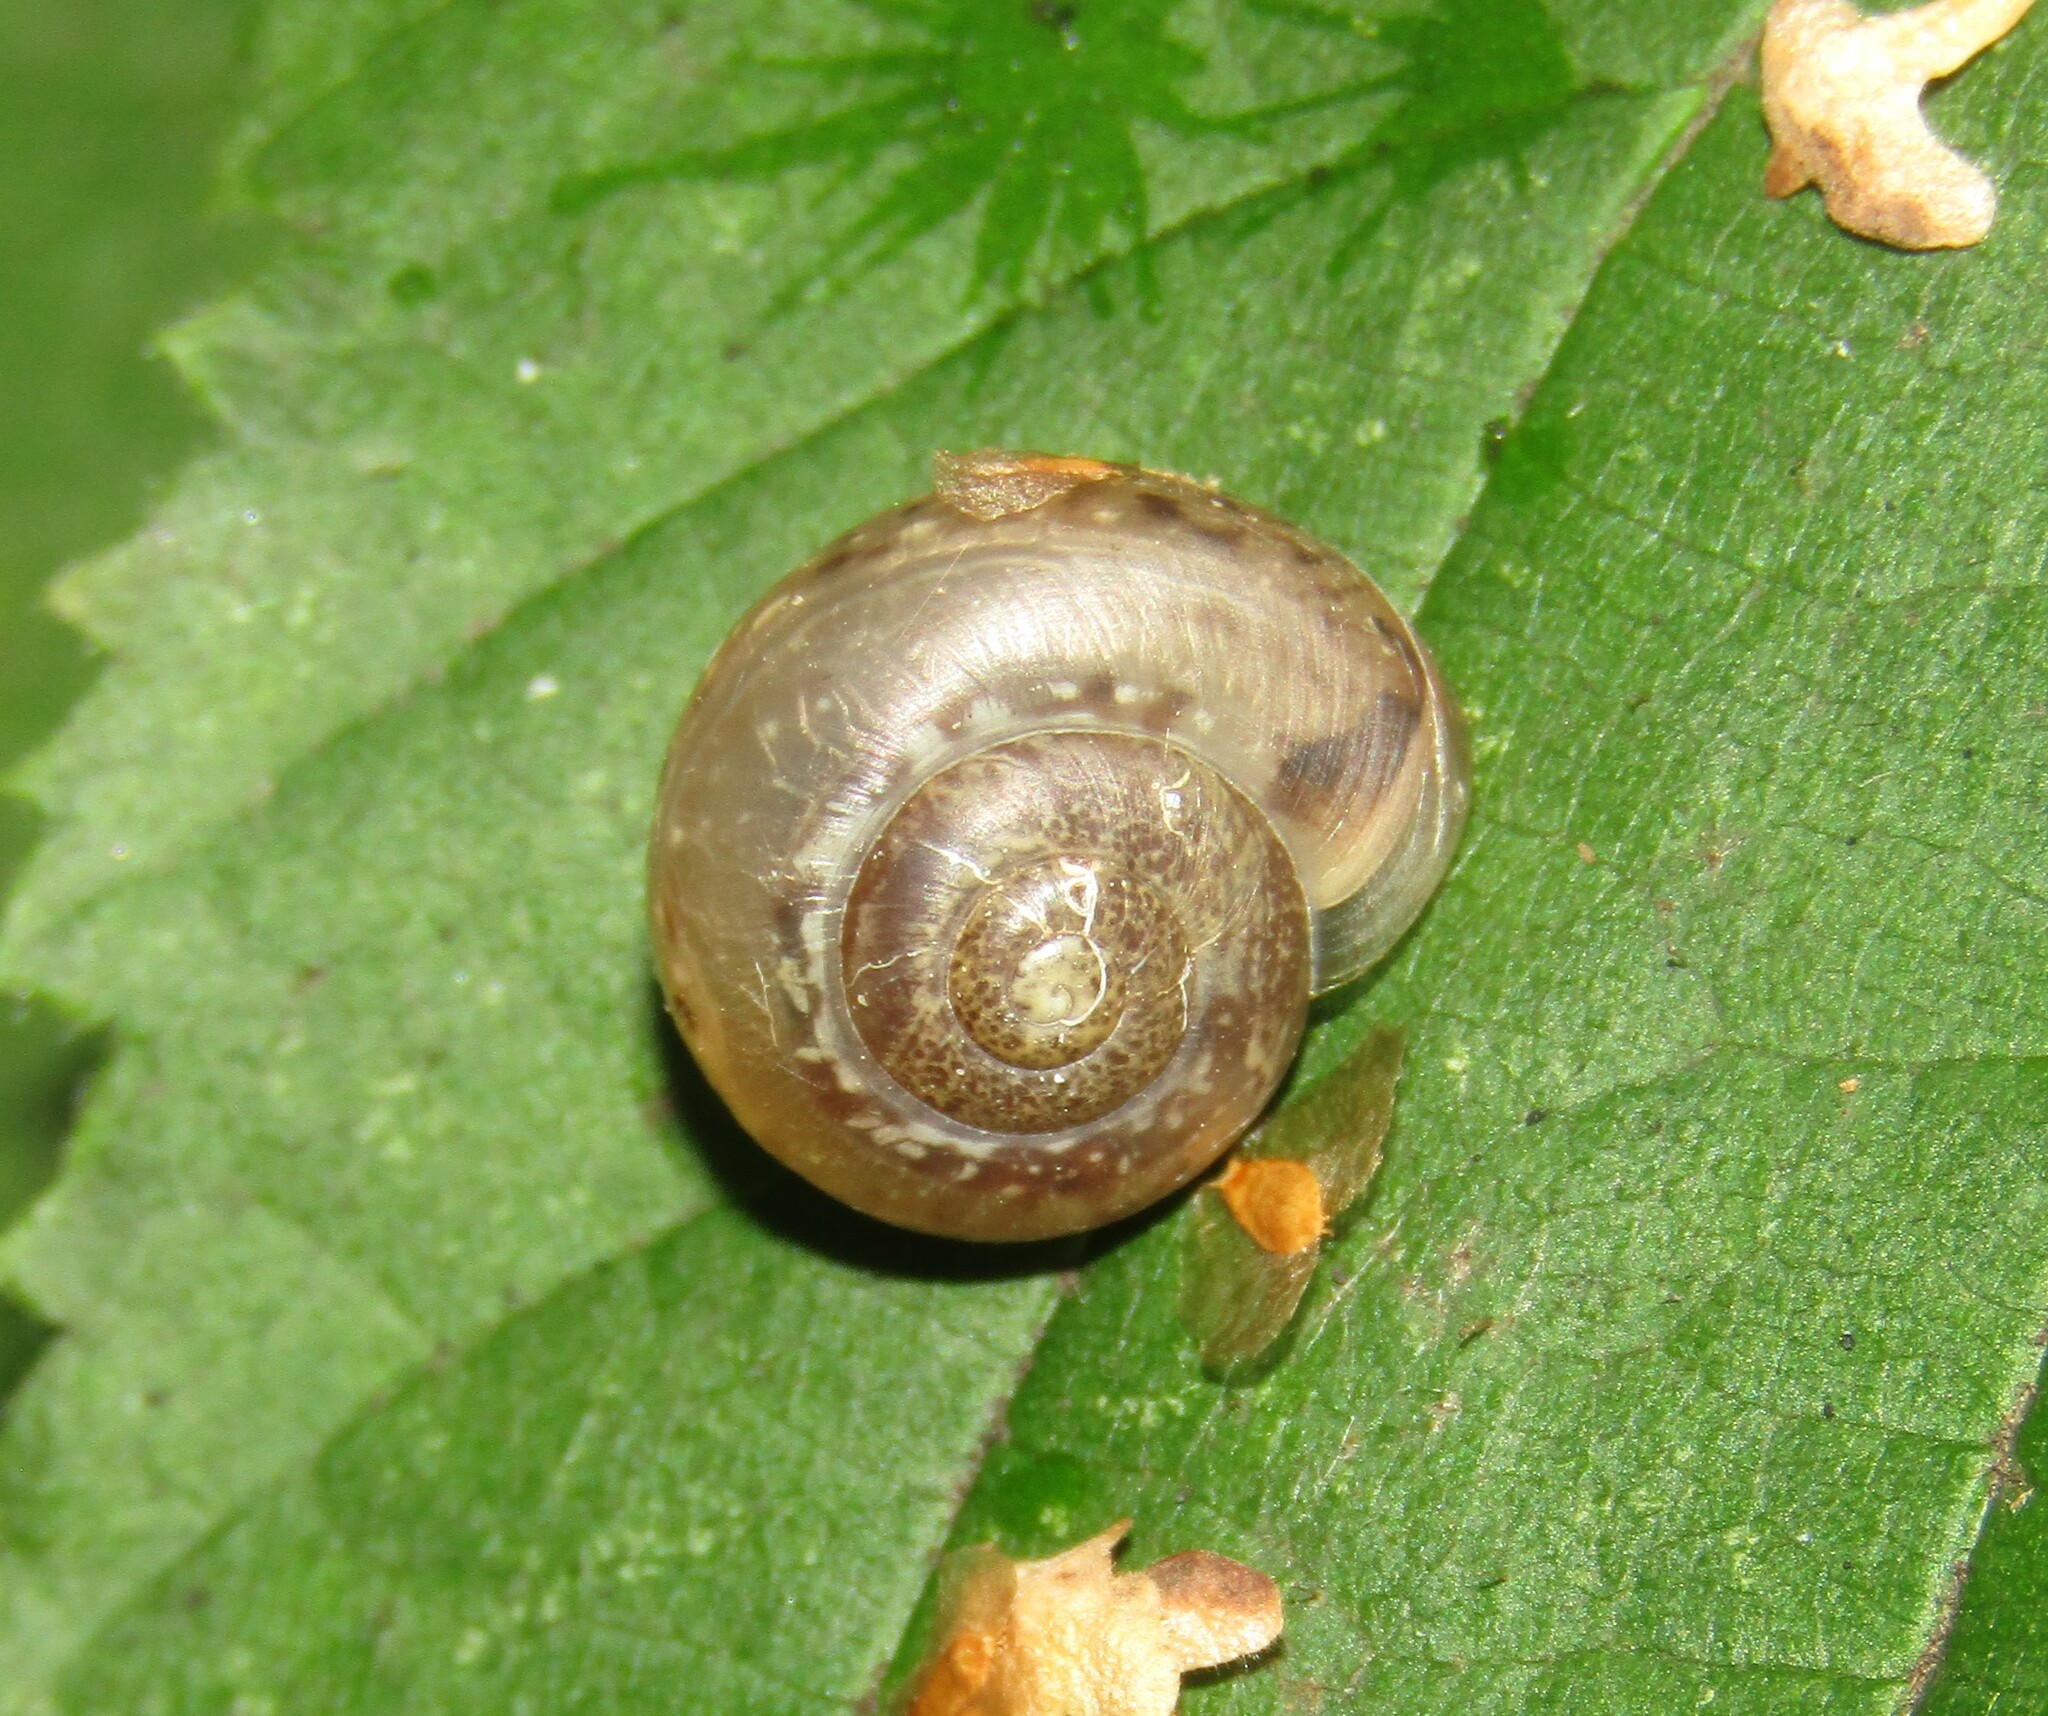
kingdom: Animalia
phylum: Mollusca
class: Gastropoda
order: Stylommatophora
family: Camaenidae
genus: Fruticicola
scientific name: Fruticicola fruticum
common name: Bush snail
